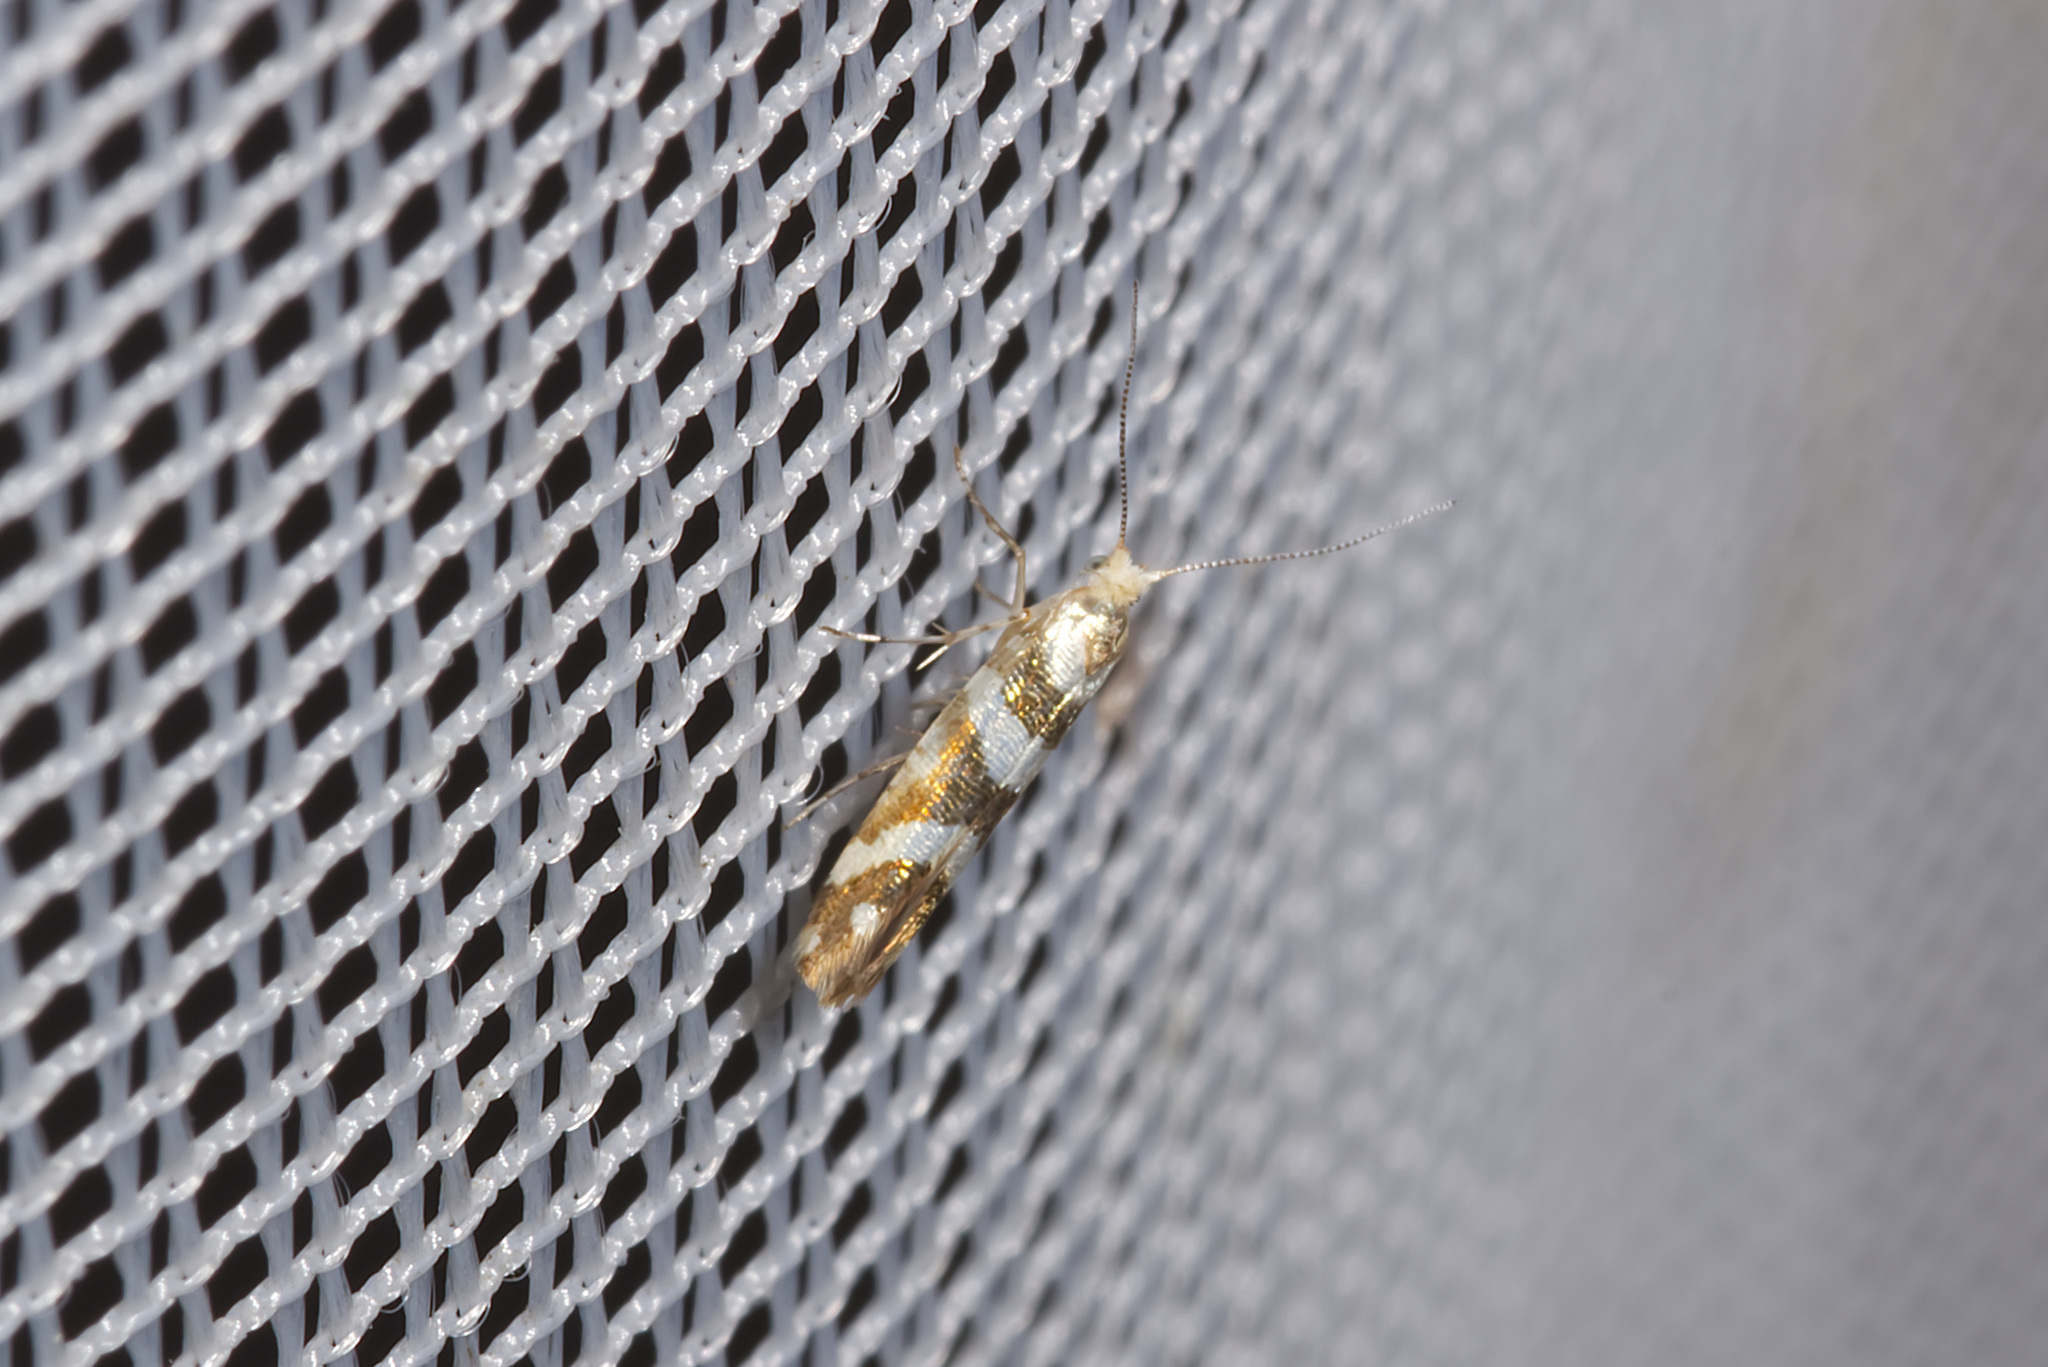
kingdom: Animalia
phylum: Arthropoda
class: Insecta
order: Lepidoptera
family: Argyresthiidae
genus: Argyresthia
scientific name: Argyresthia goedartella
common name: Golden argent
